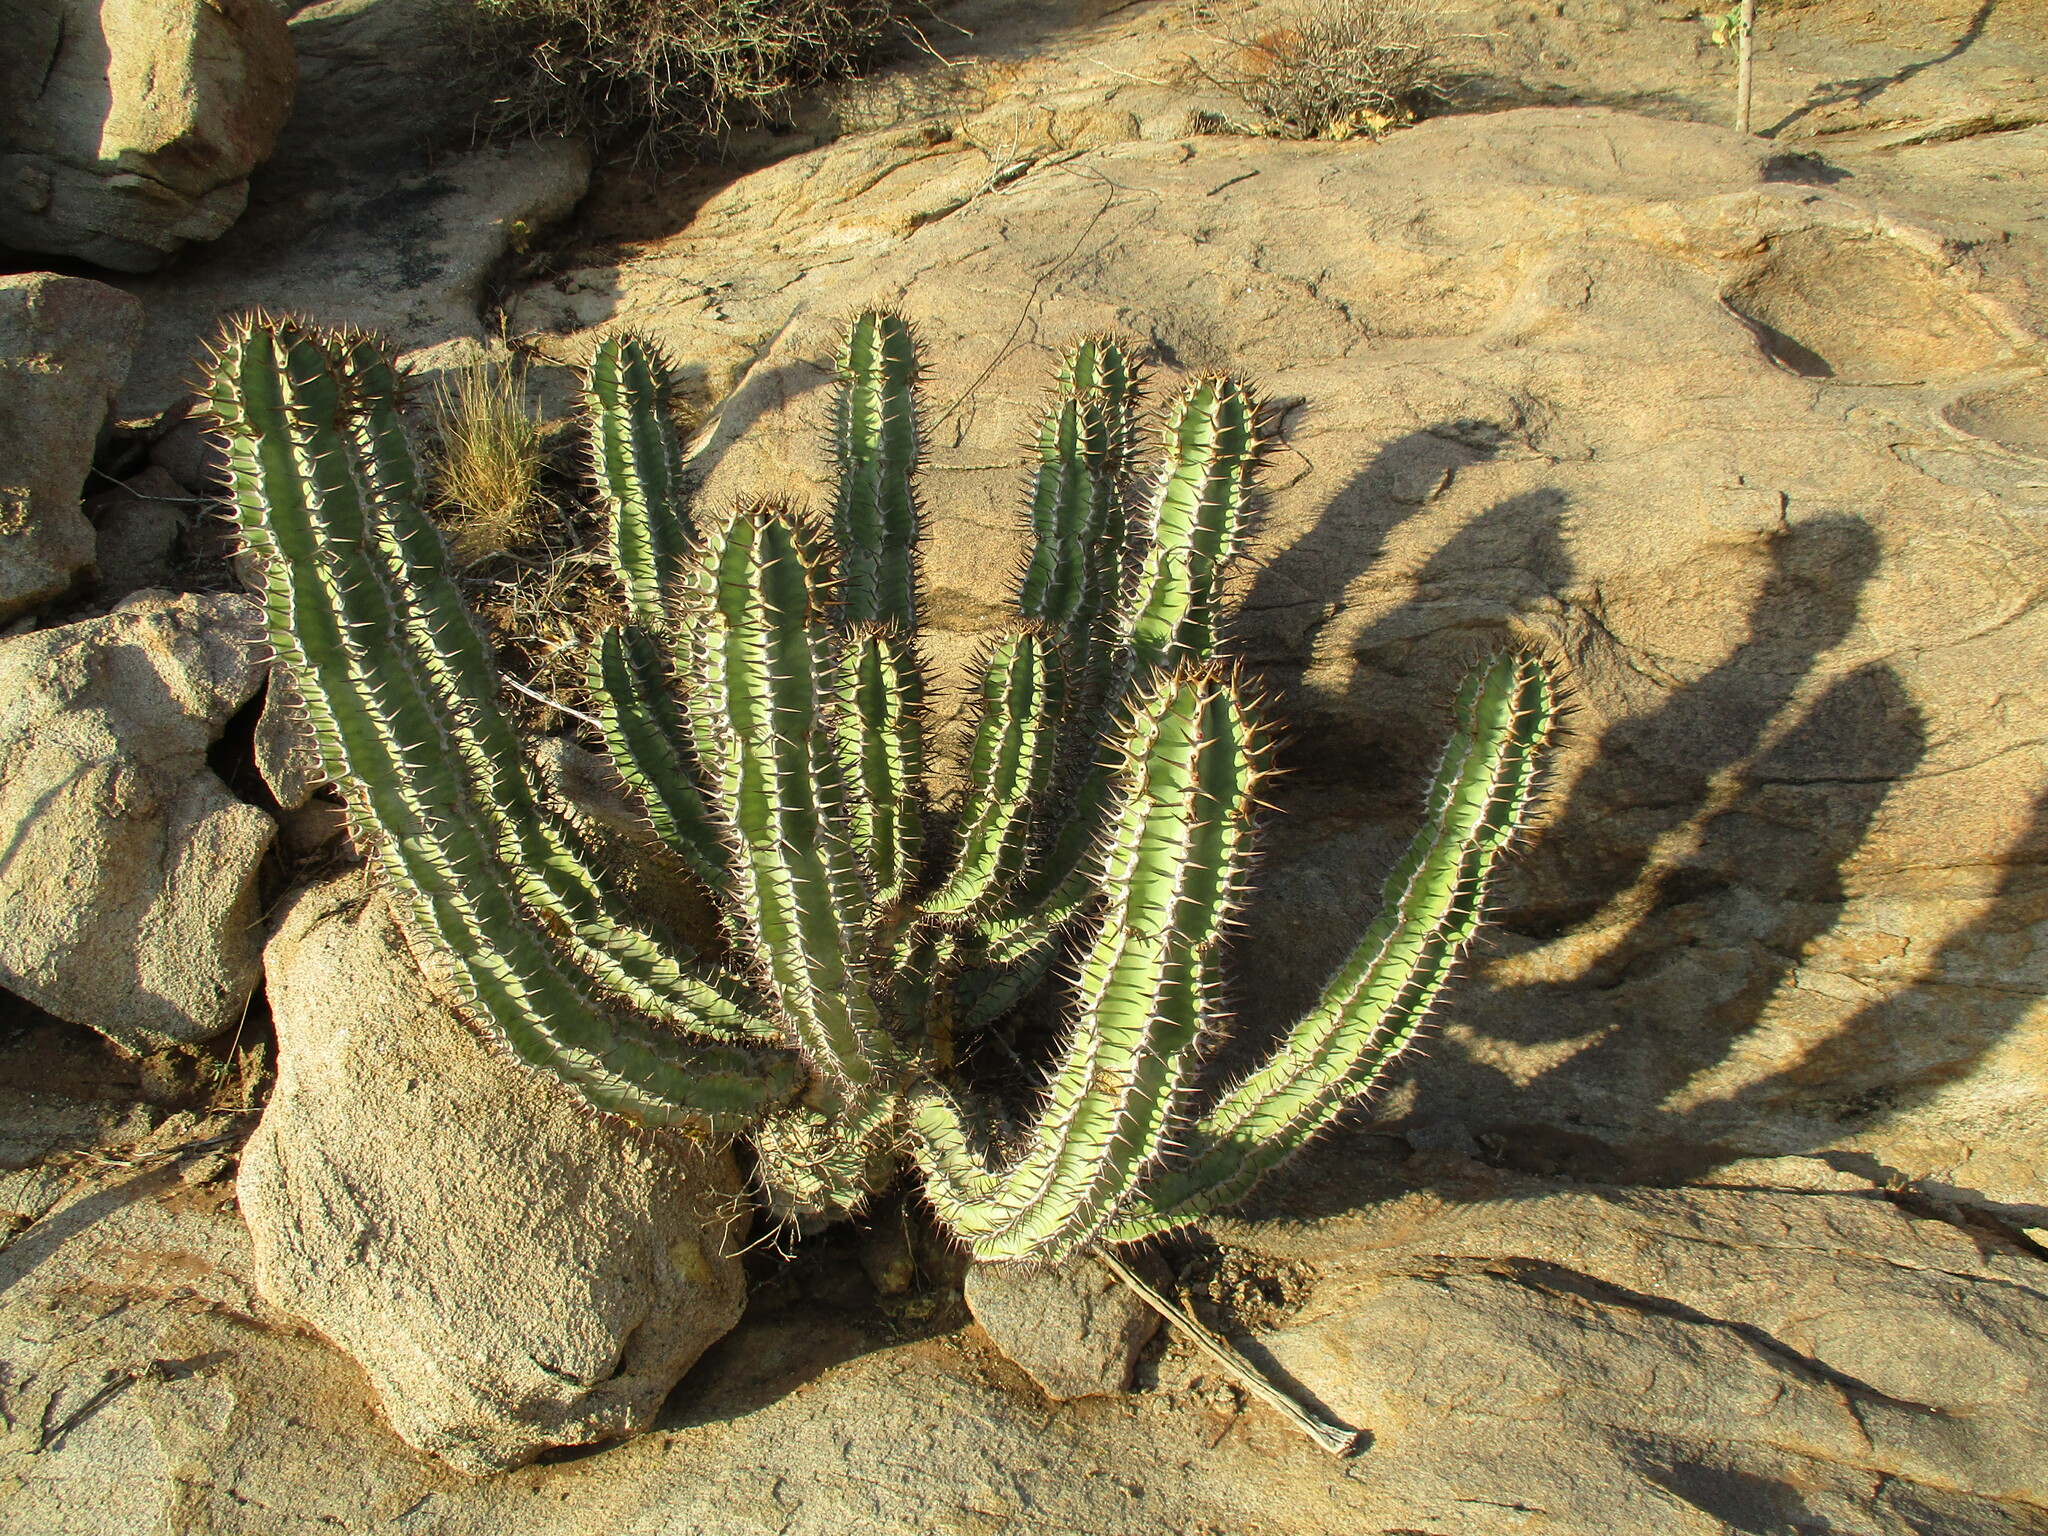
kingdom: Plantae
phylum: Tracheophyta
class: Magnoliopsida
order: Malpighiales
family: Euphorbiaceae
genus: Euphorbia
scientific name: Euphorbia virosa
